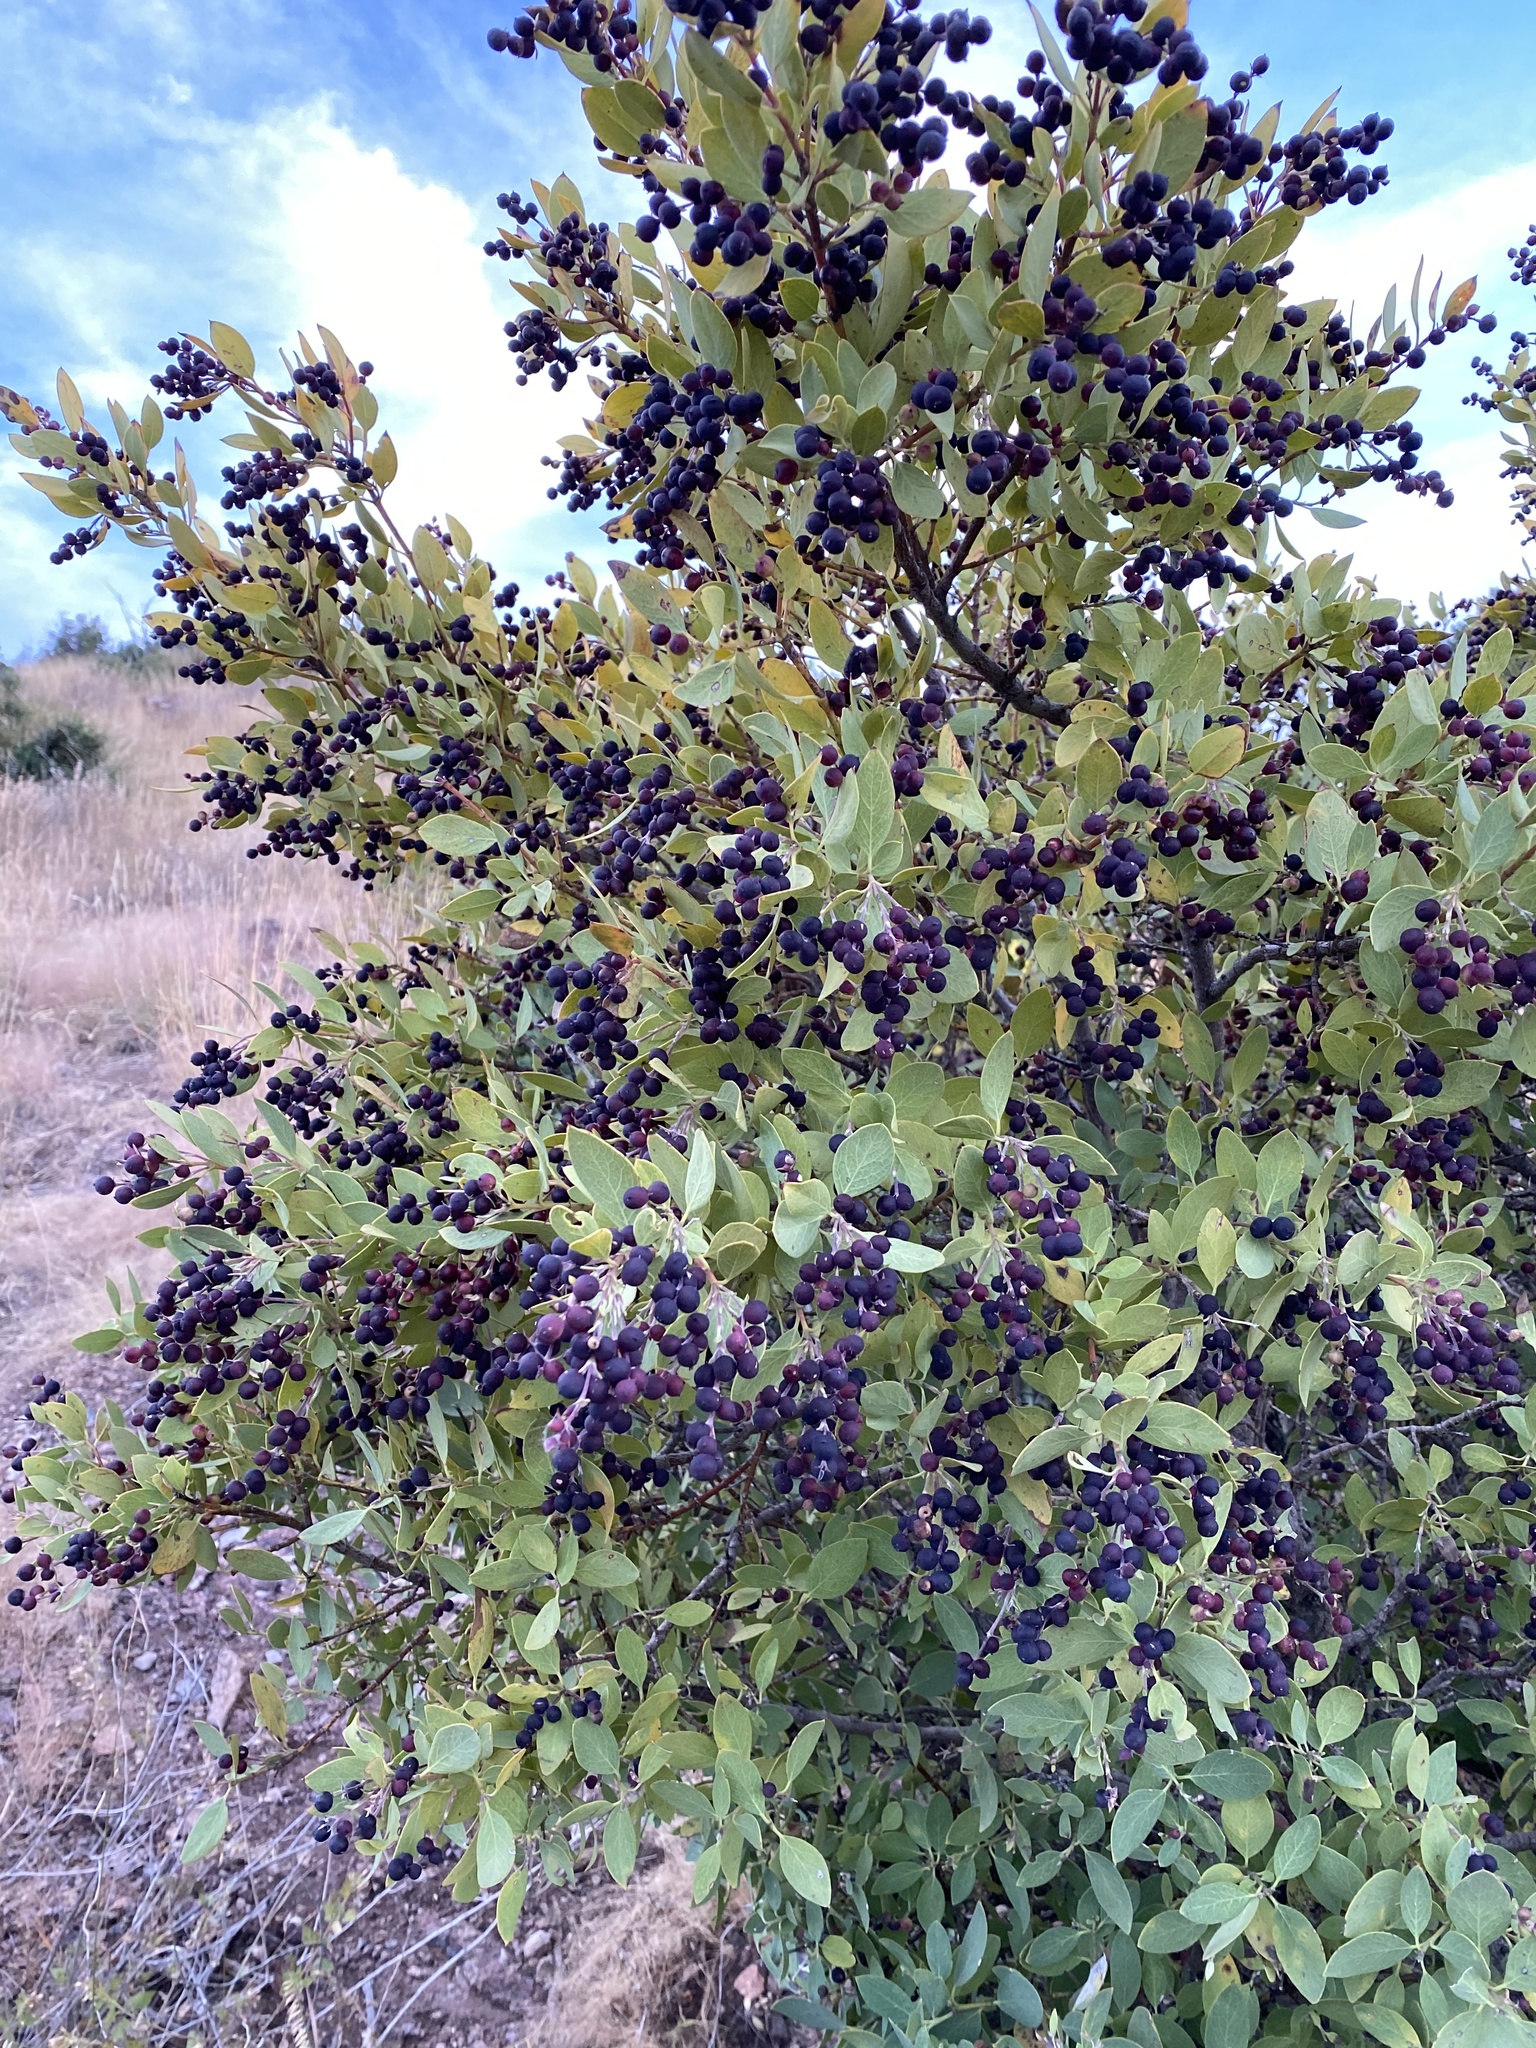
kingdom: Plantae
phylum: Tracheophyta
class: Magnoliopsida
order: Garryales
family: Garryaceae
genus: Garrya
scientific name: Garrya wrightii
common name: Wright's silktassel
